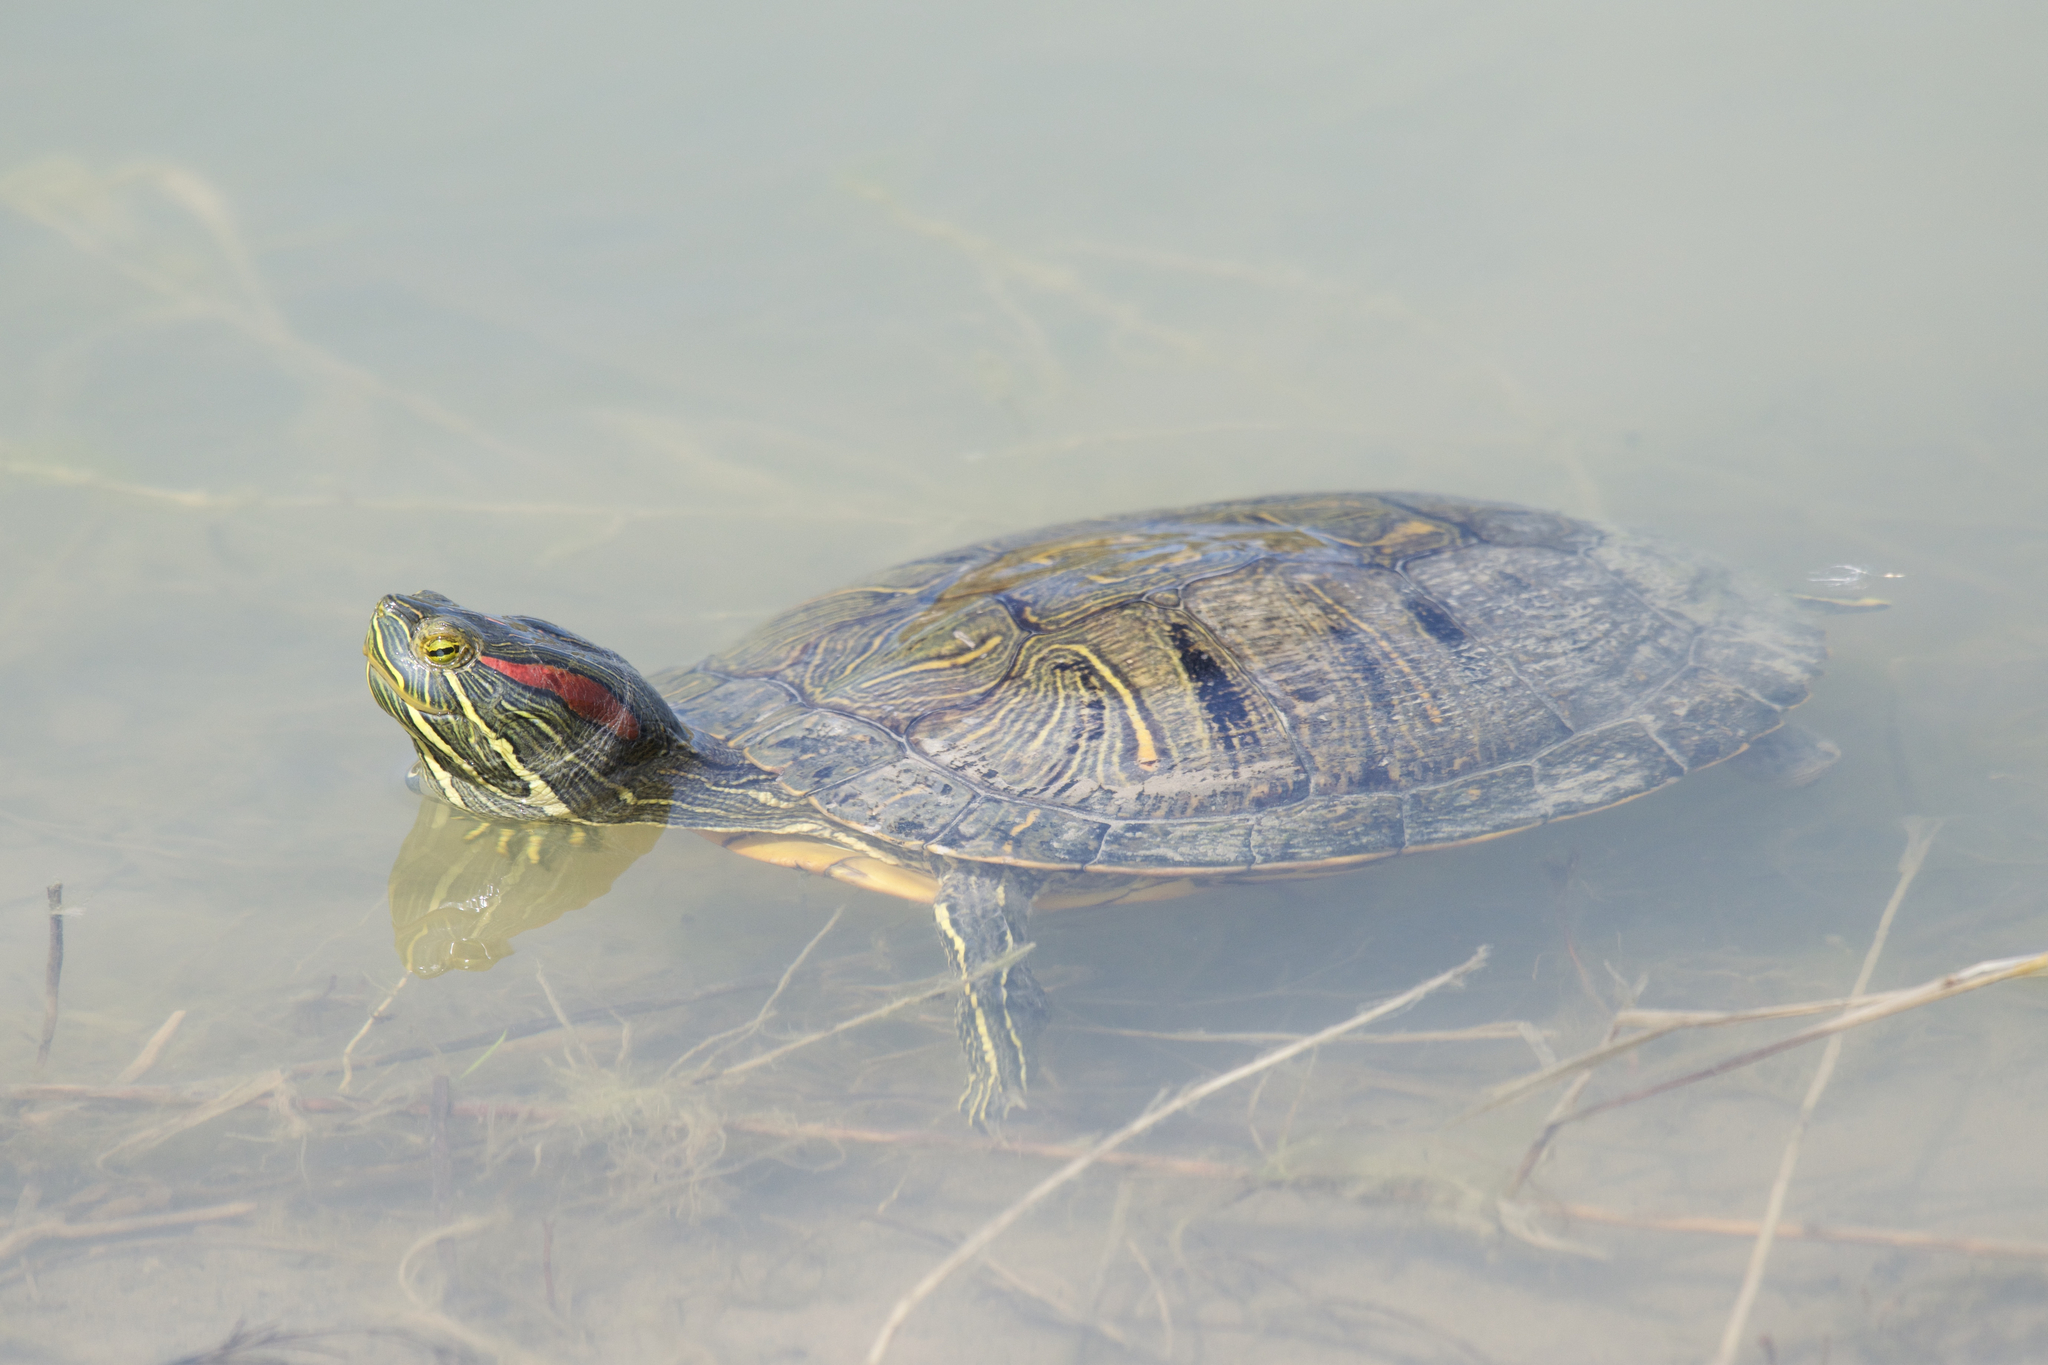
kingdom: Animalia
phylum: Chordata
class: Testudines
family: Emydidae
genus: Trachemys
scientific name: Trachemys scripta
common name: Slider
